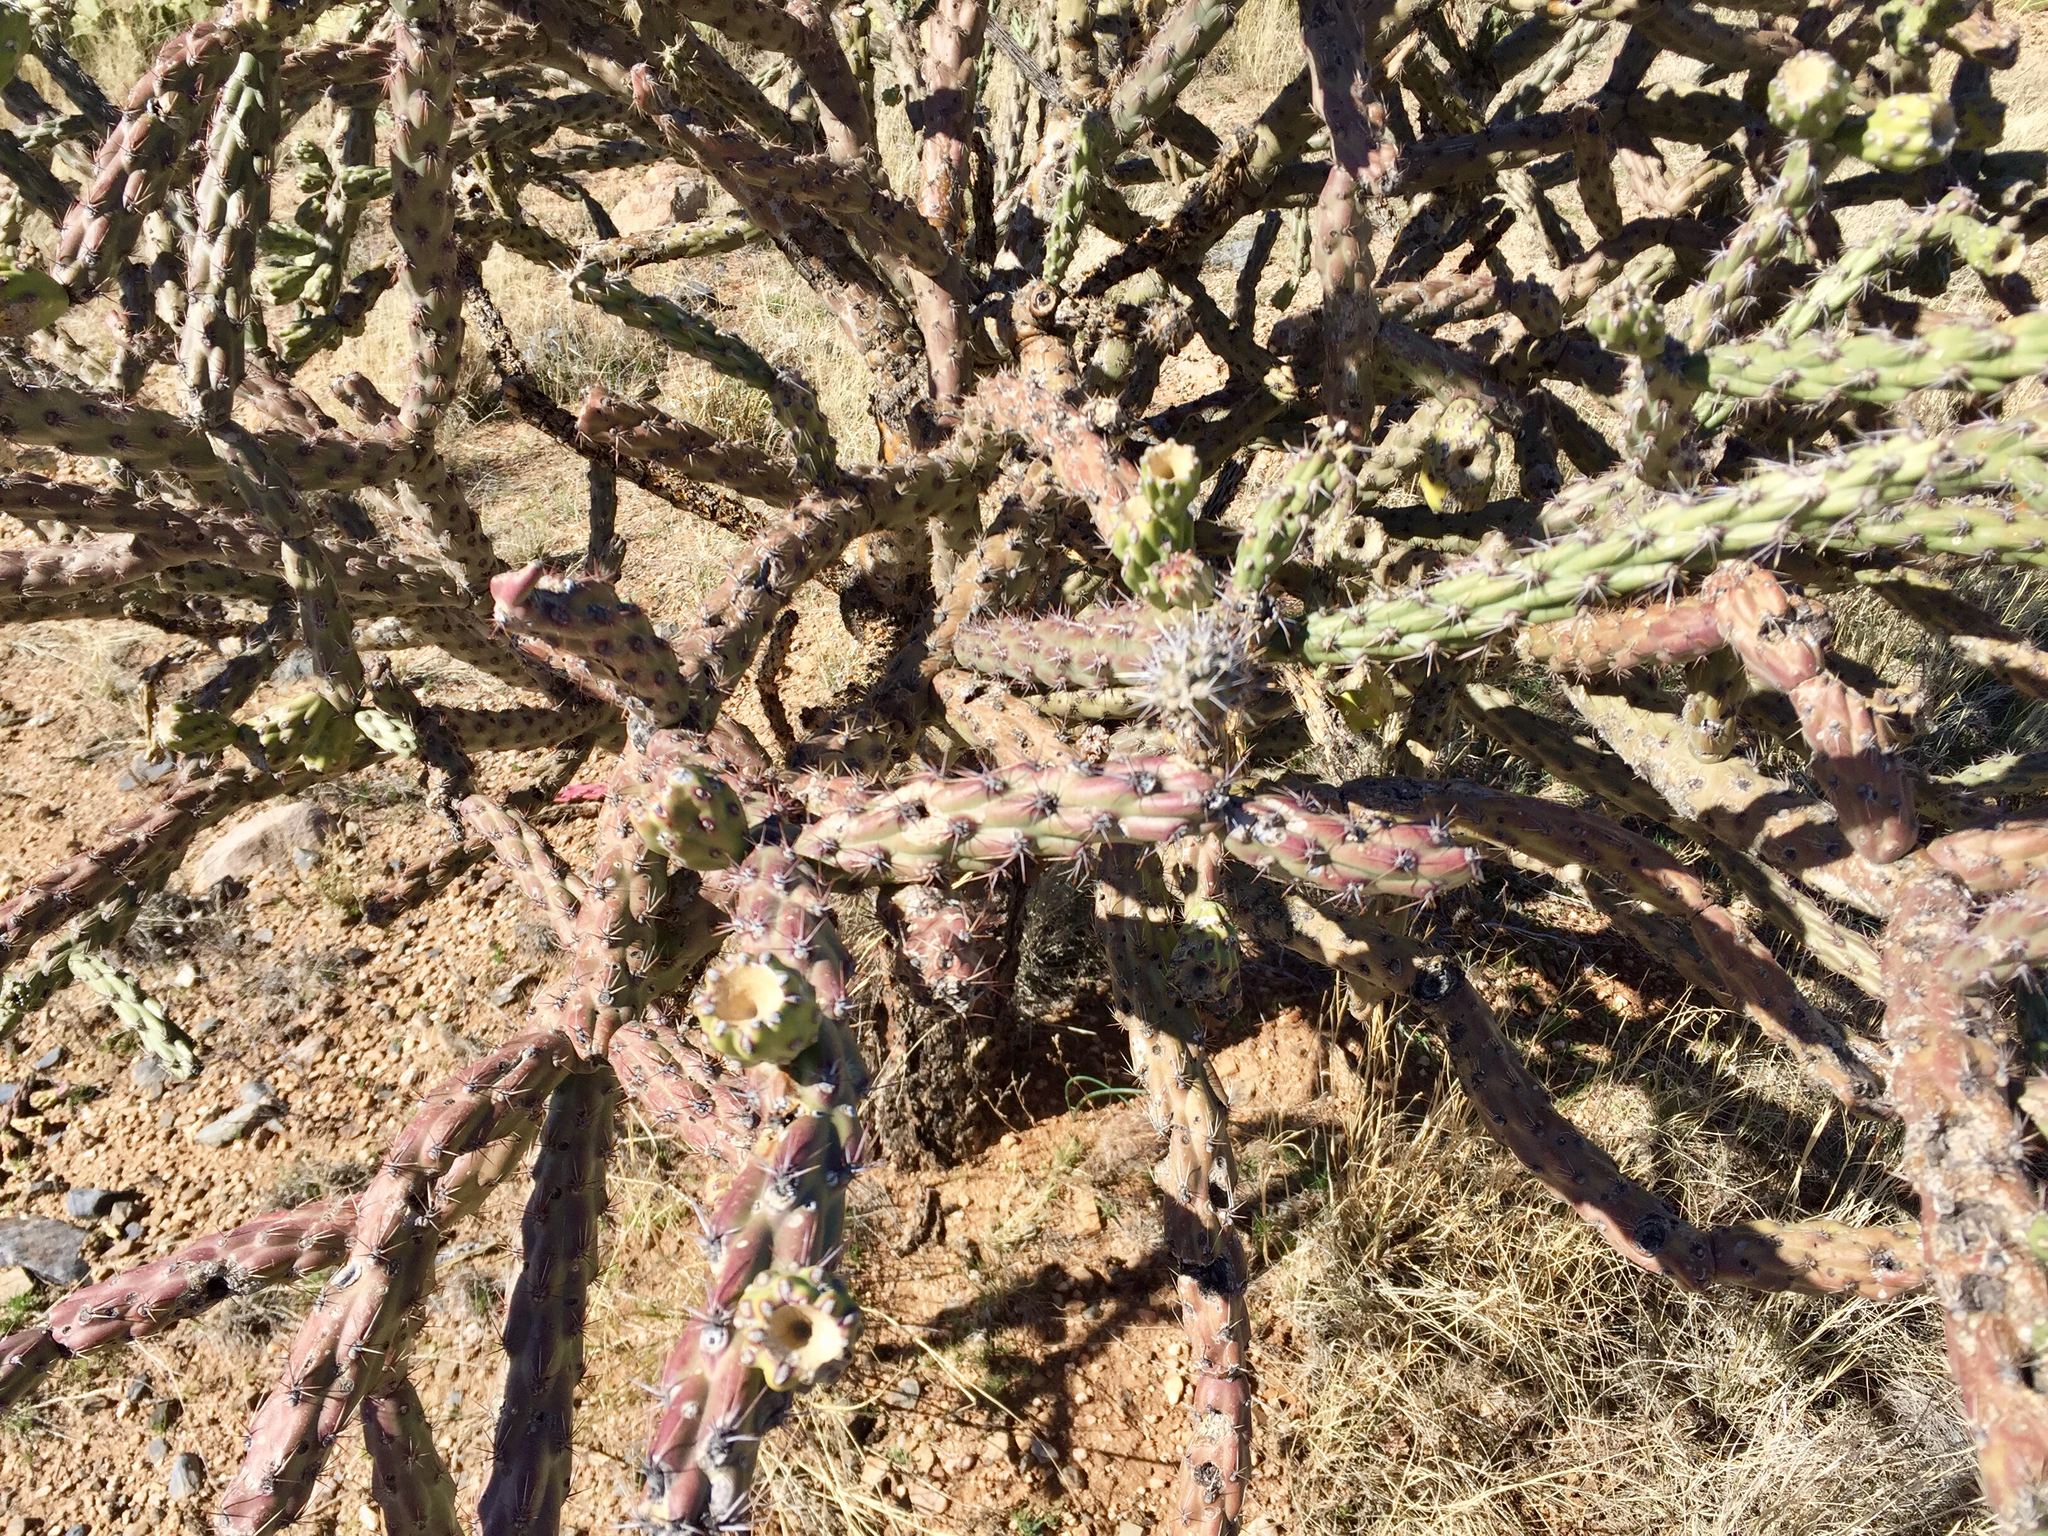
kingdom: Plantae
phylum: Tracheophyta
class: Magnoliopsida
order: Caryophyllales
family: Cactaceae
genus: Cylindropuntia
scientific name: Cylindropuntia thurberi
